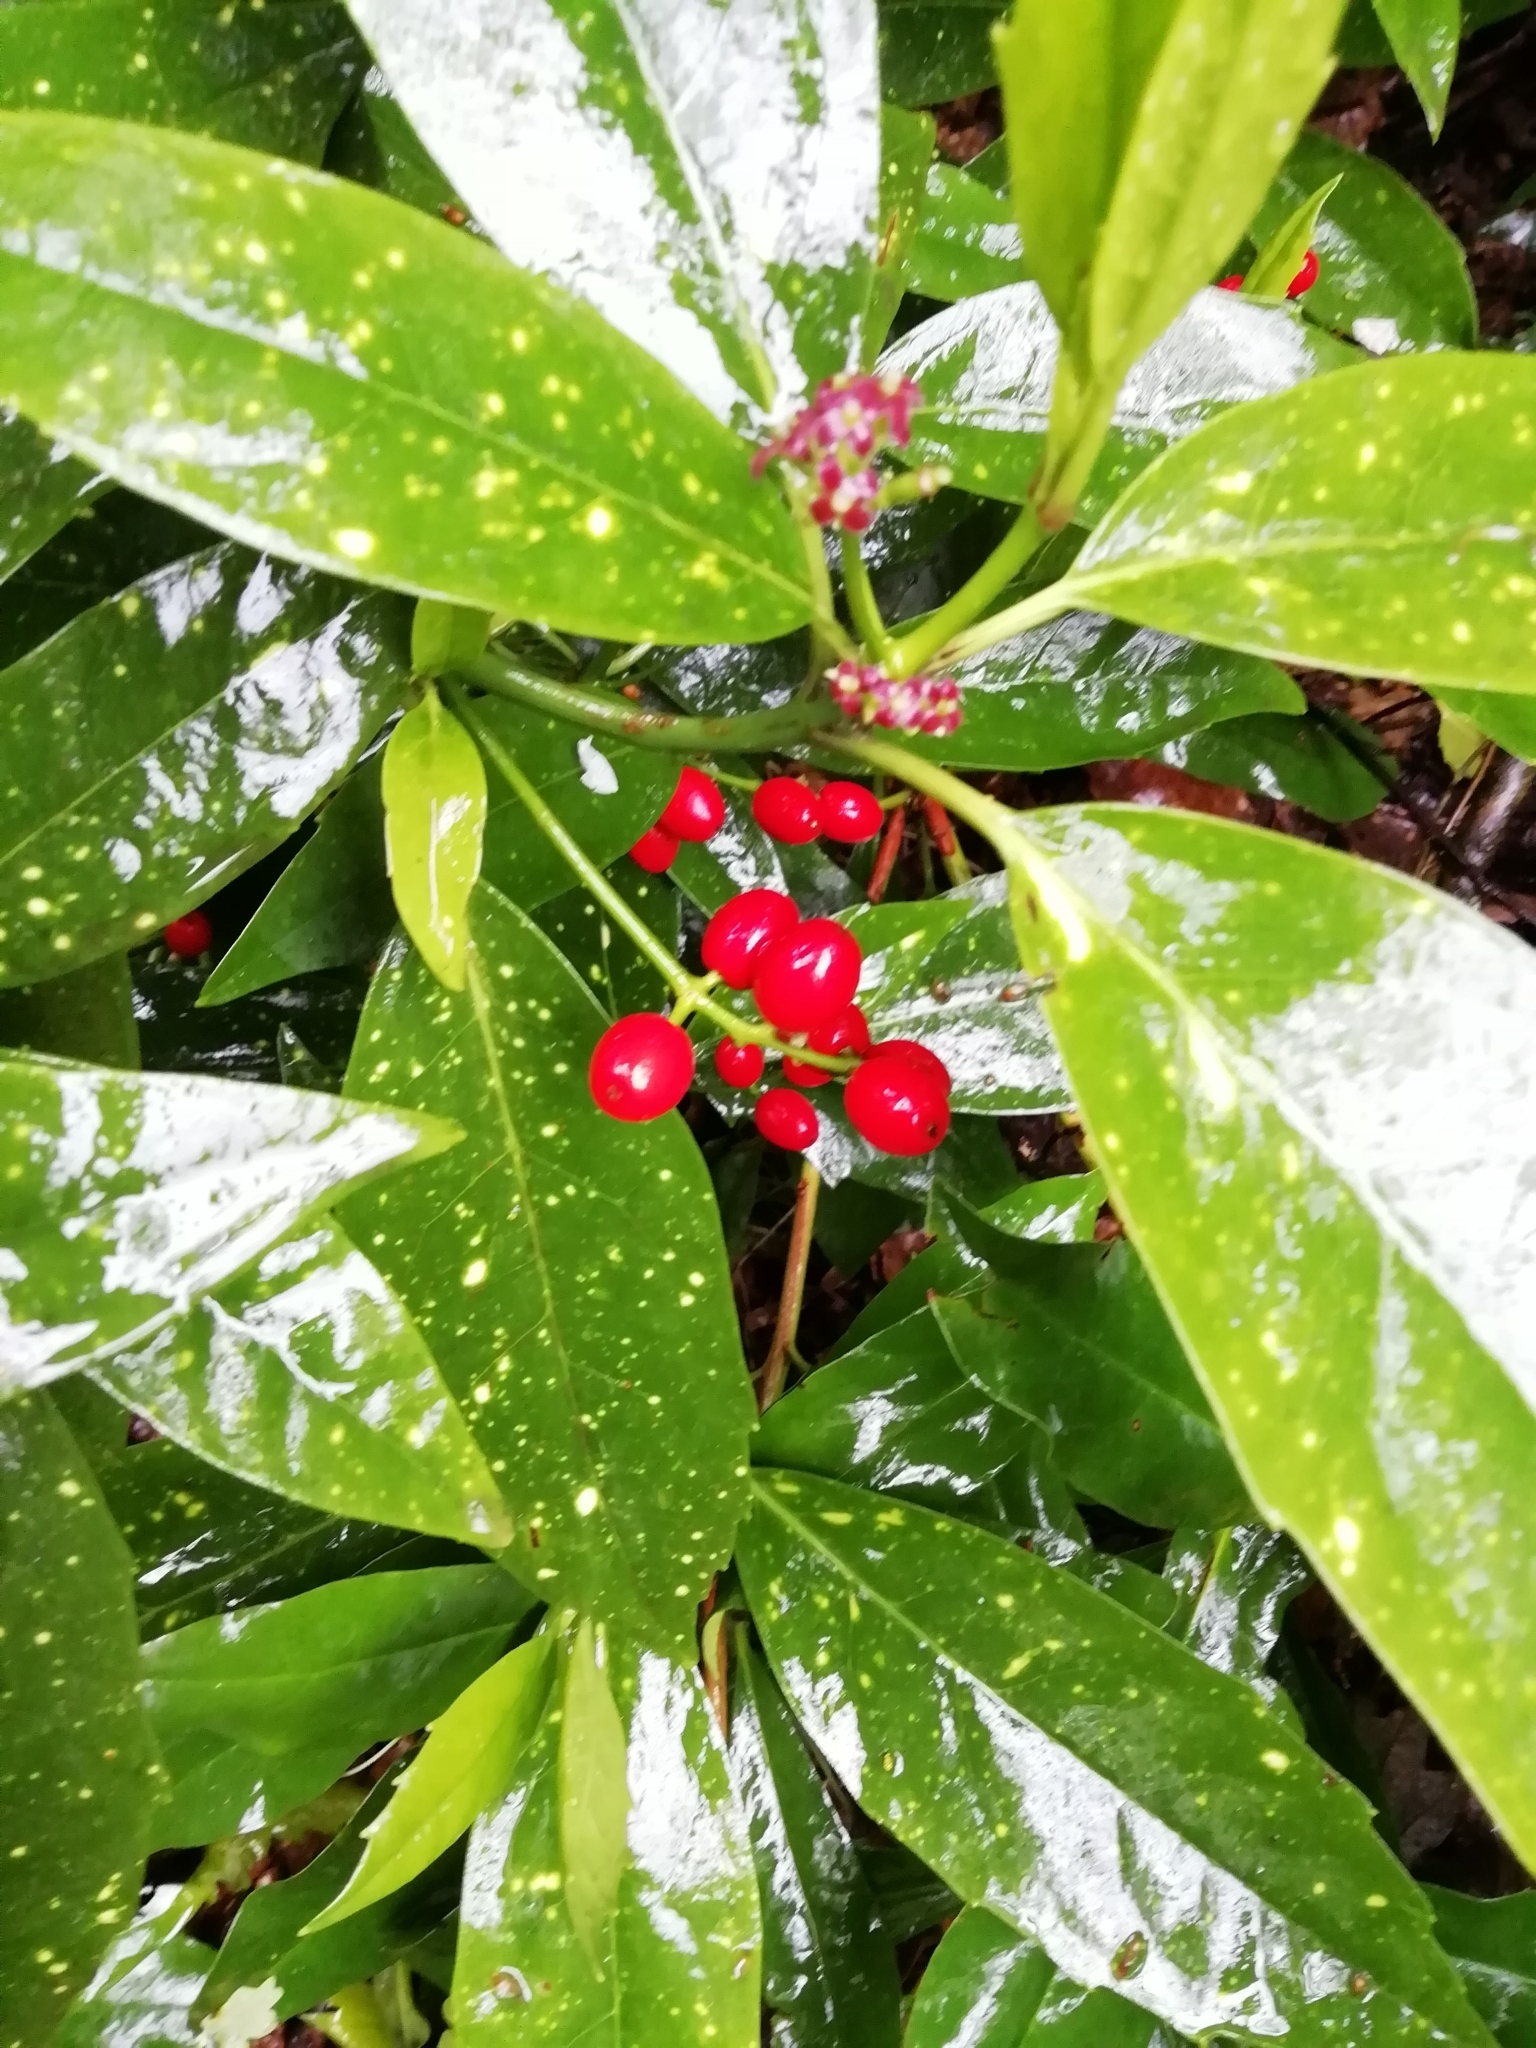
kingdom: Plantae
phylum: Tracheophyta
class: Magnoliopsida
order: Garryales
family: Garryaceae
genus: Aucuba
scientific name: Aucuba japonica
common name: Spotted-laurel
